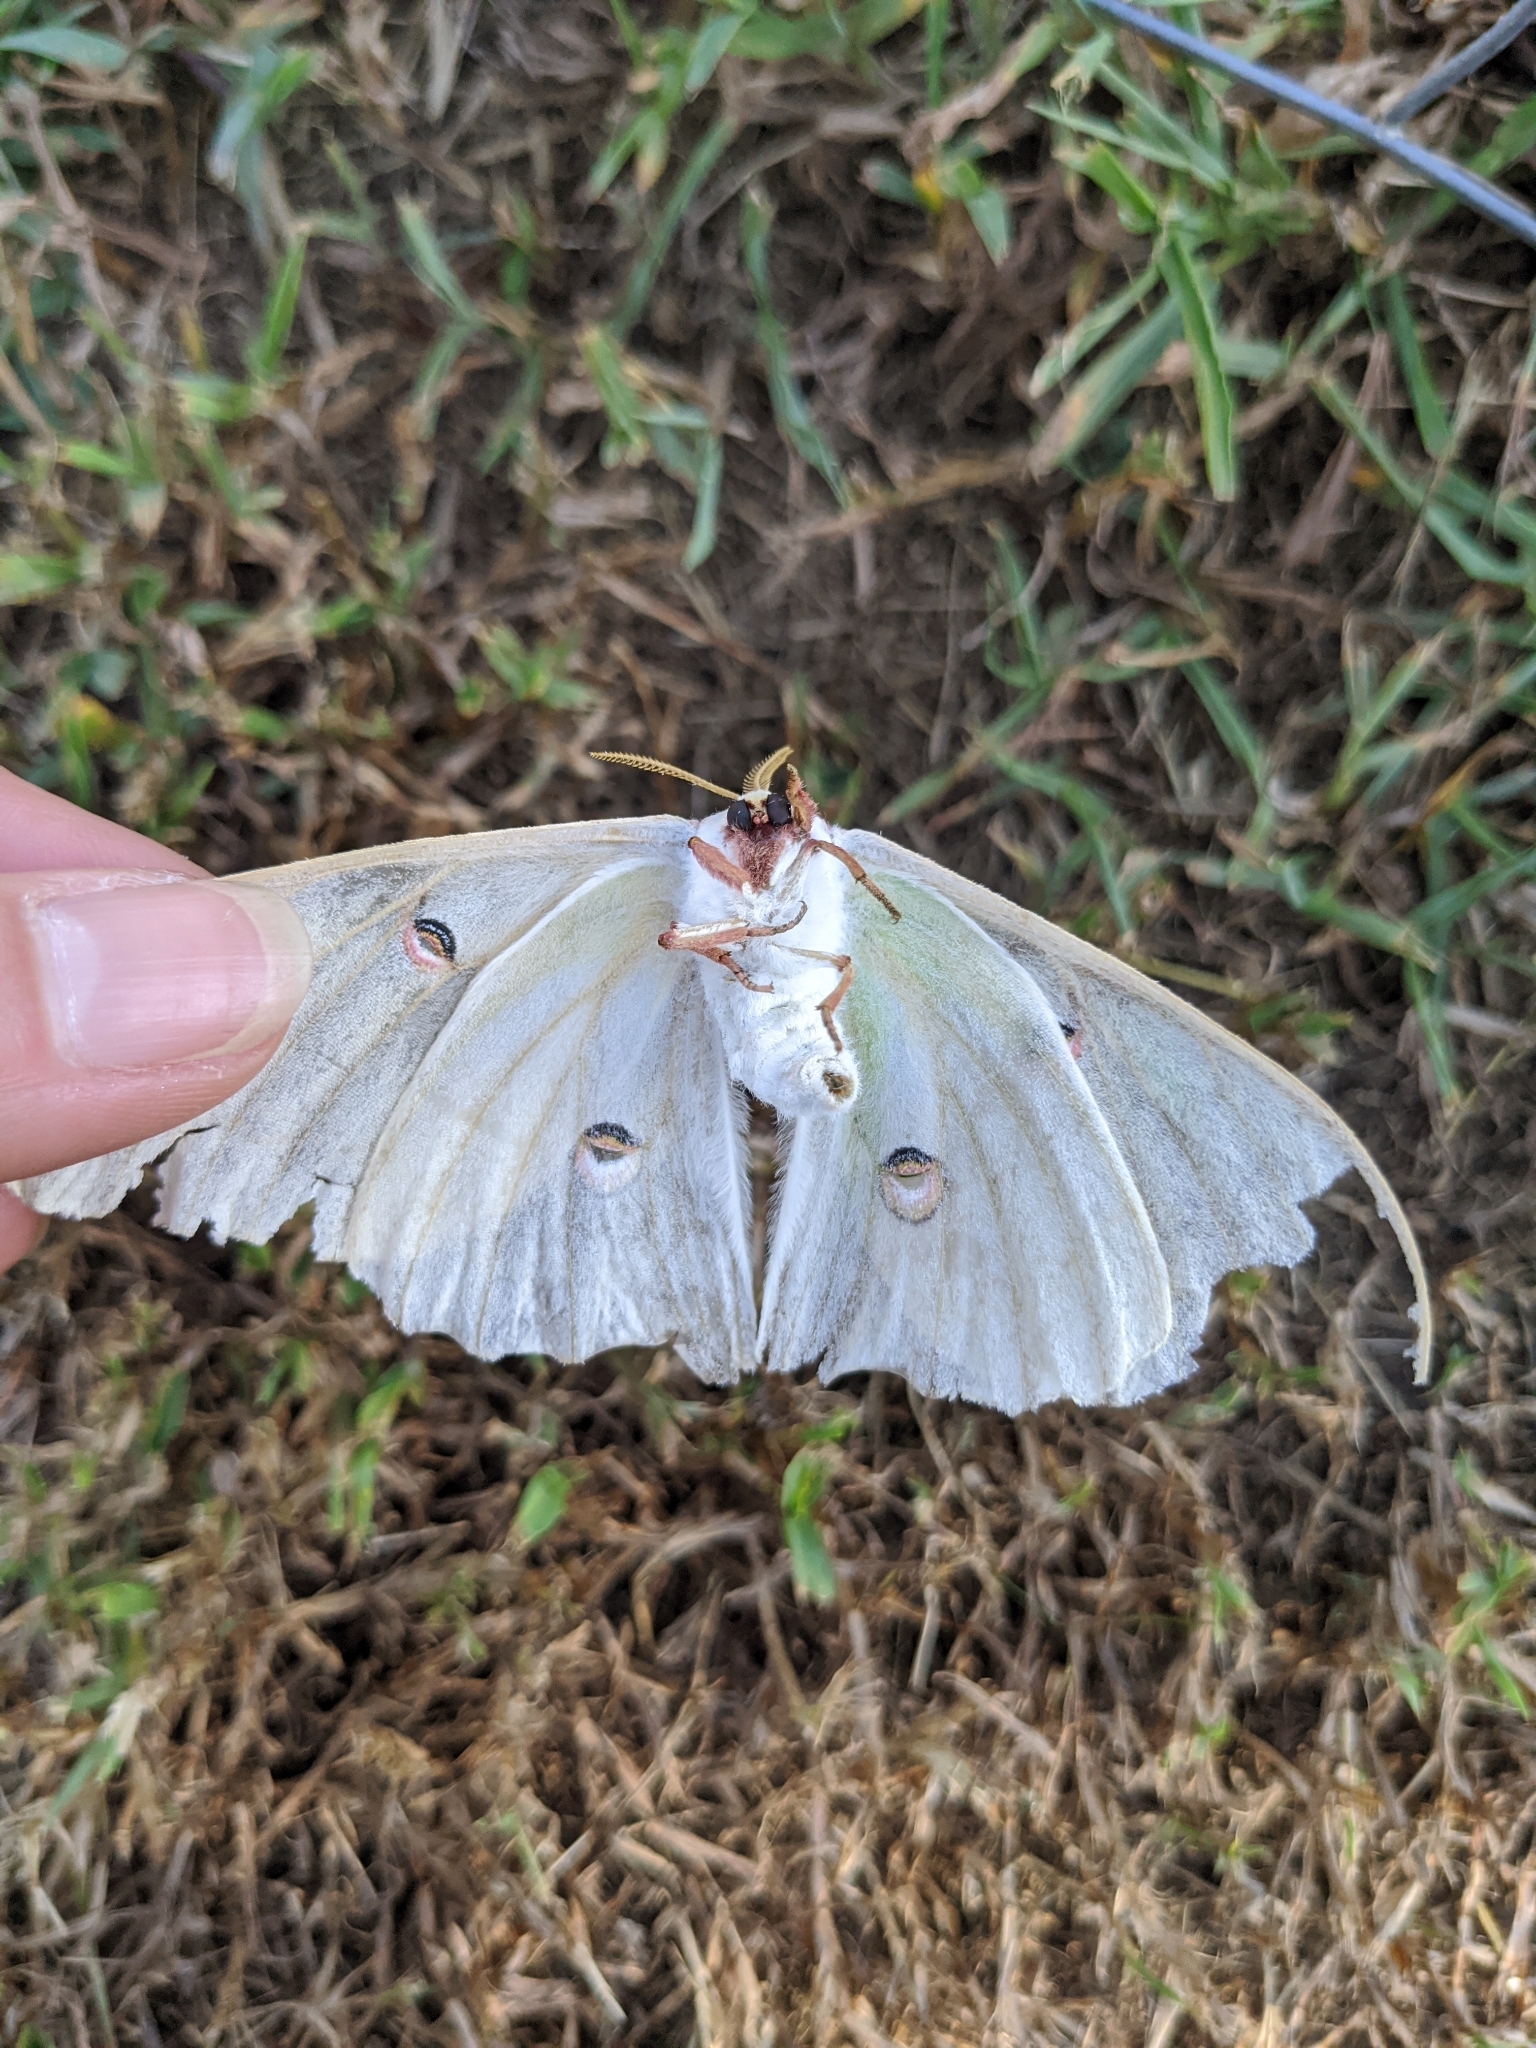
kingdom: Animalia
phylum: Arthropoda
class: Insecta
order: Lepidoptera
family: Saturniidae
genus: Actias
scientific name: Actias luna
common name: Luna moth
